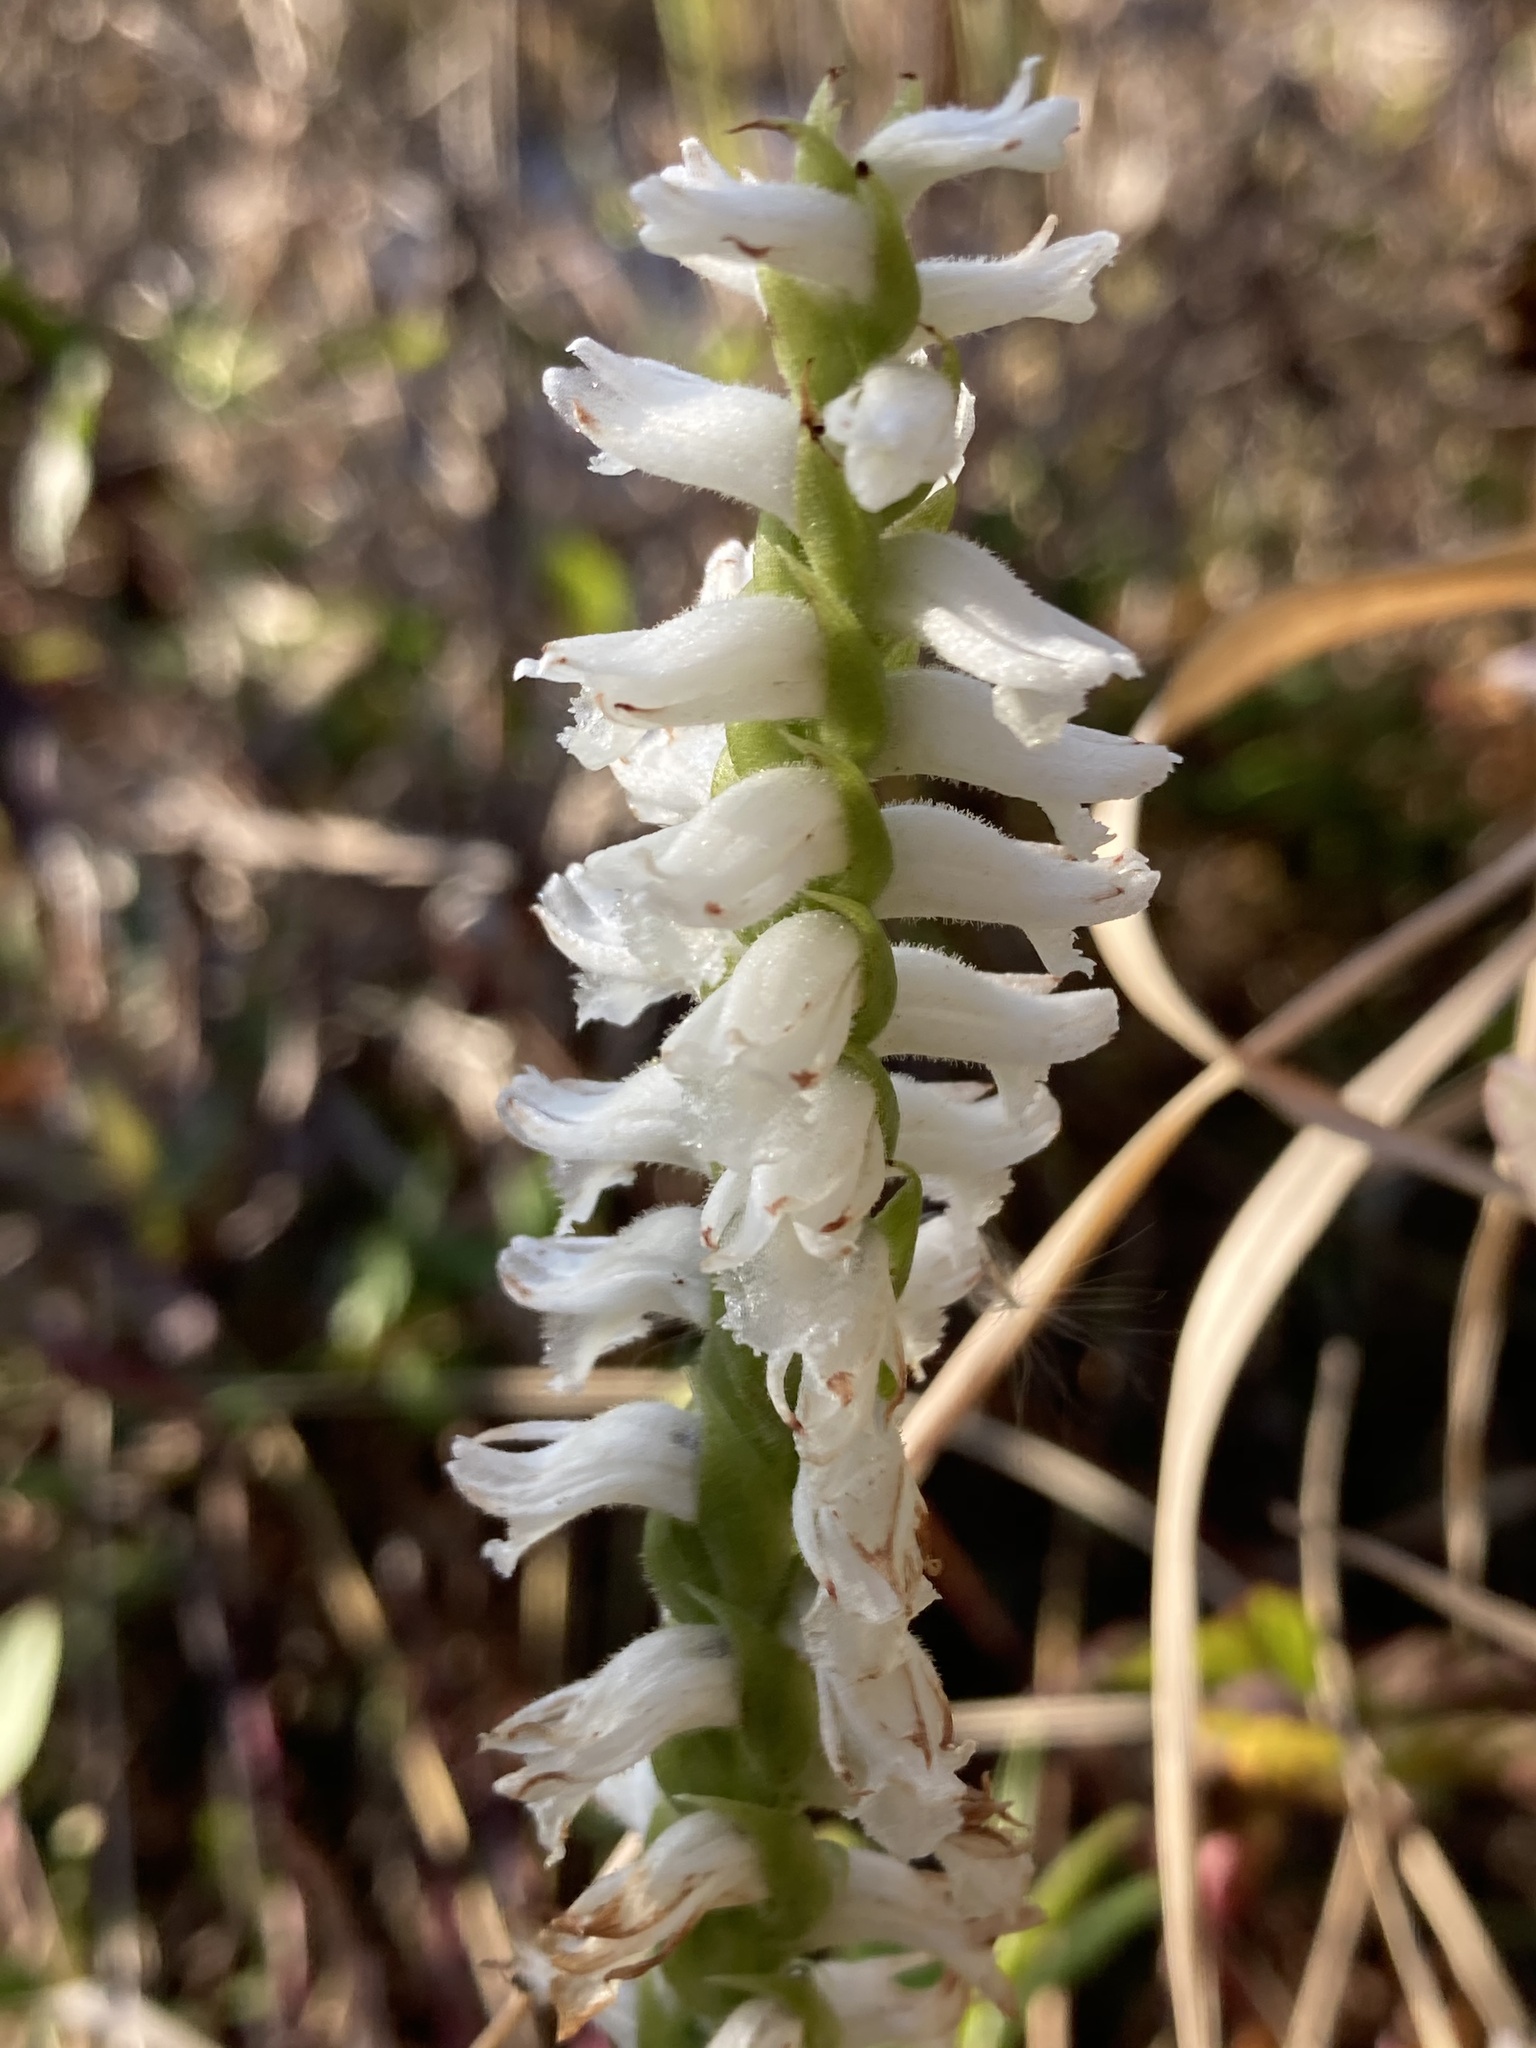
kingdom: Plantae
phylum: Tracheophyta
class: Liliopsida
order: Asparagales
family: Orchidaceae
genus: Spiranthes
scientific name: Spiranthes bightensis
